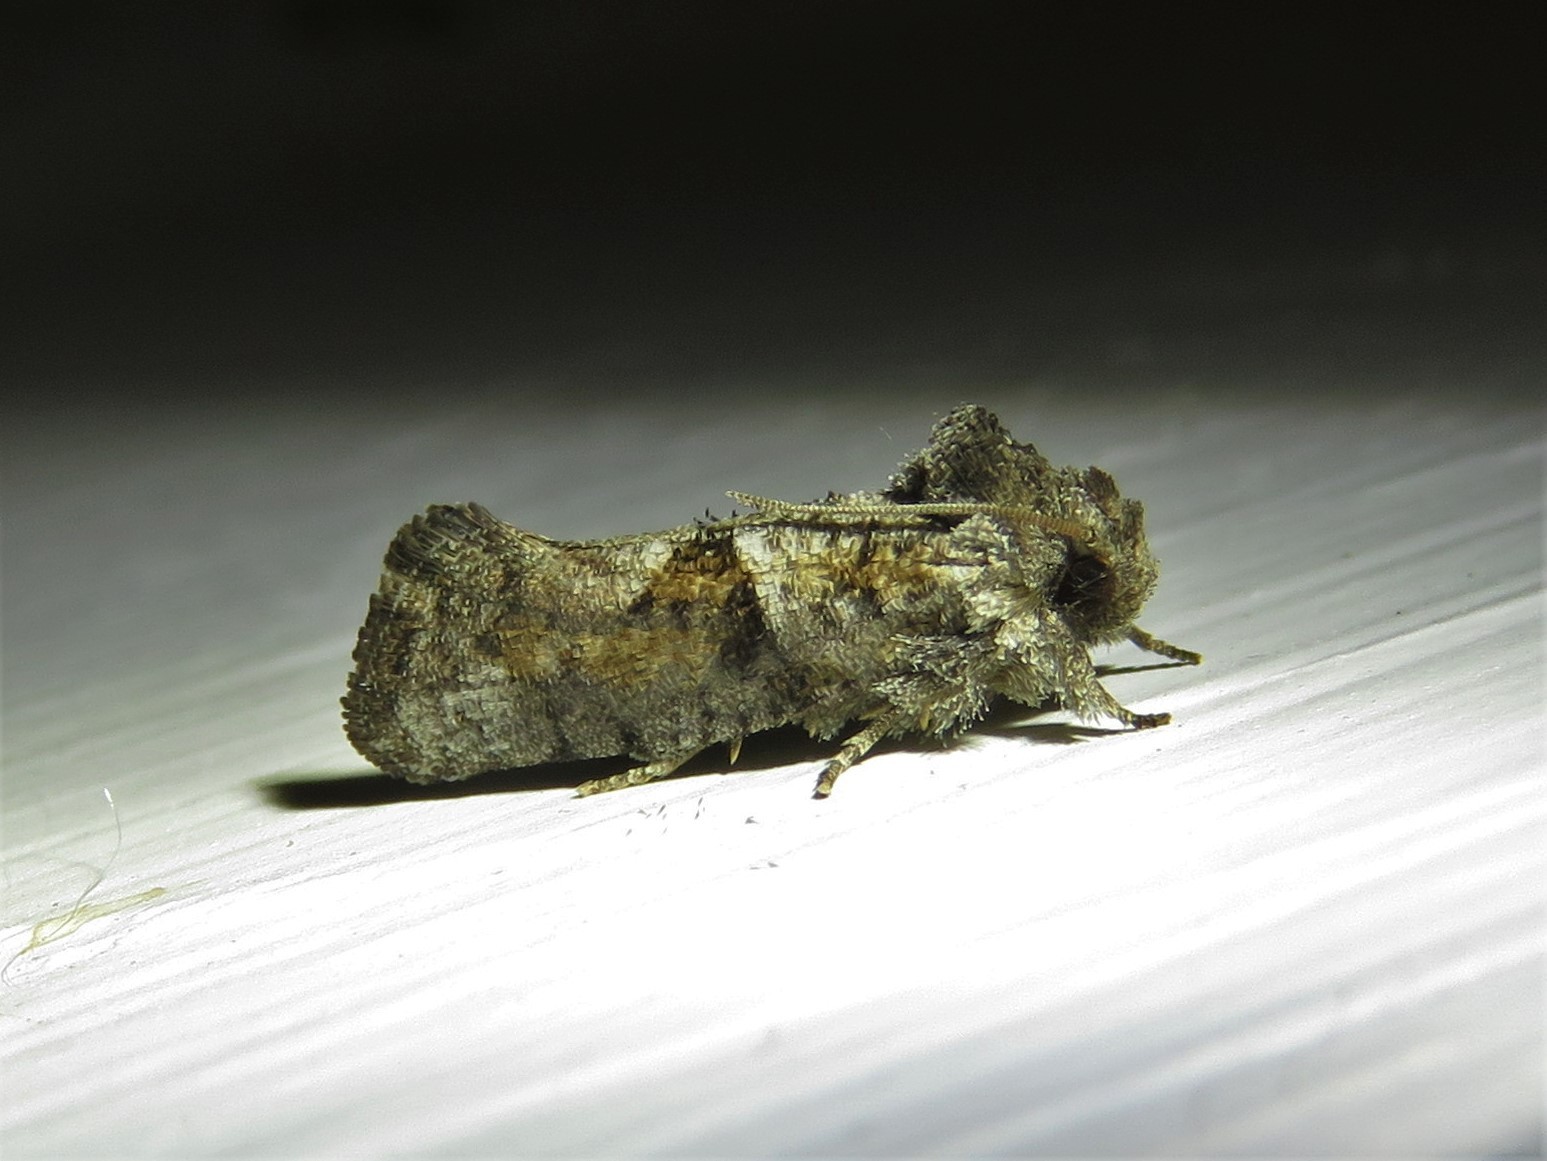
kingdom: Animalia
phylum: Arthropoda
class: Insecta
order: Lepidoptera
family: Tineidae
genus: Acrolophus
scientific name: Acrolophus piger
